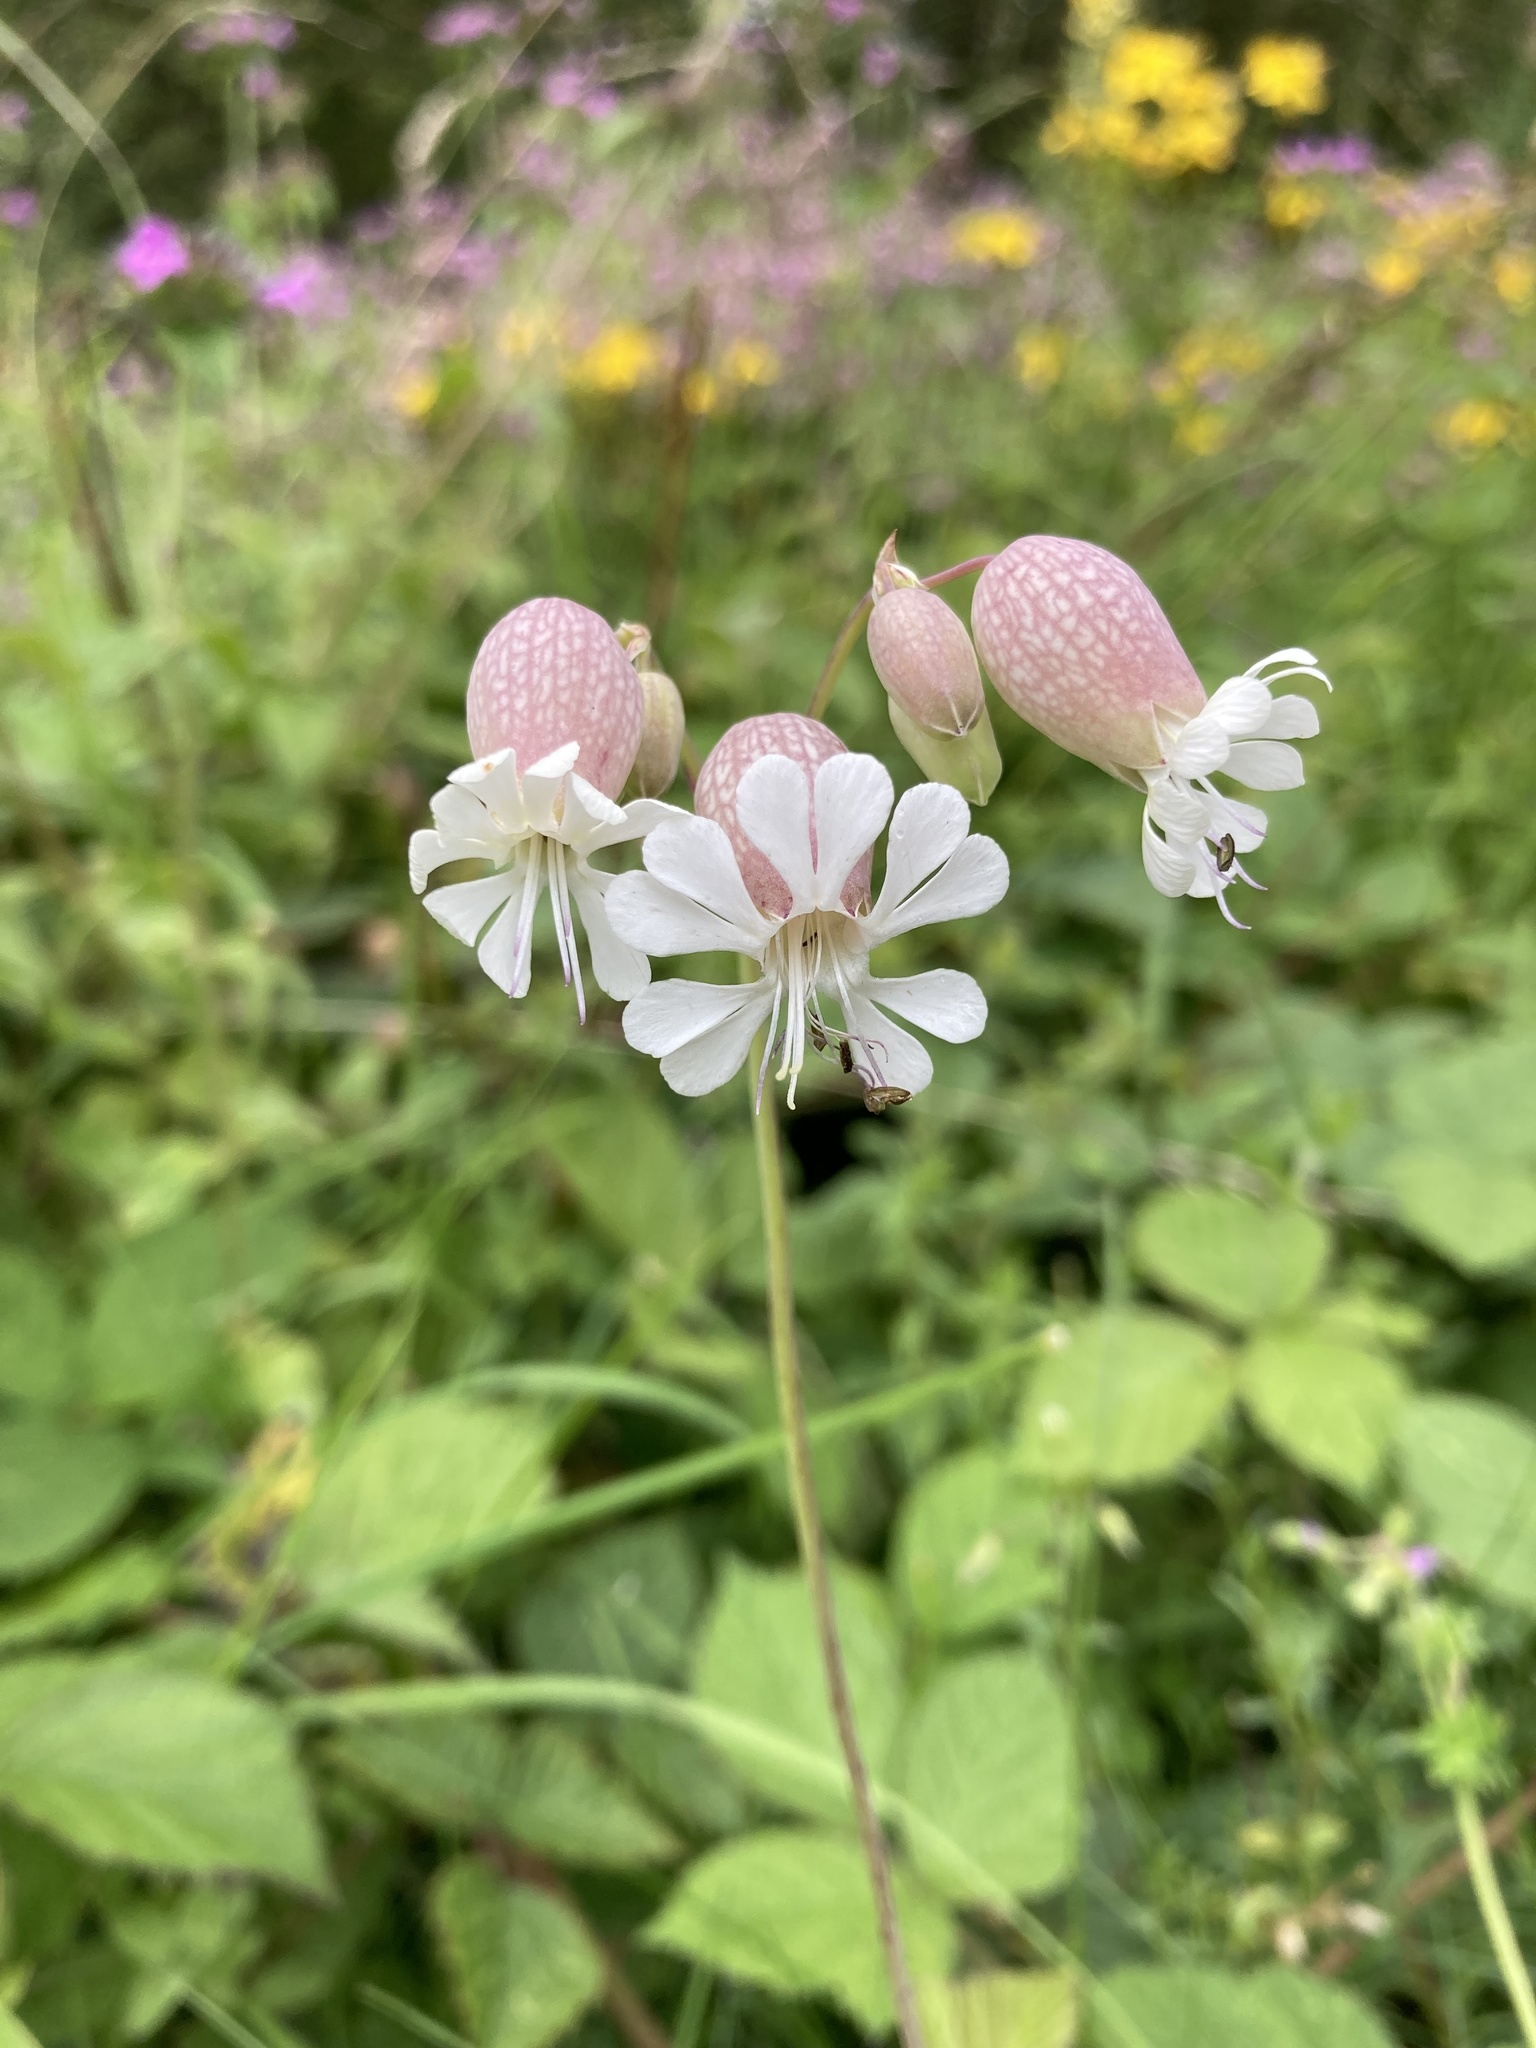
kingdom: Plantae
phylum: Tracheophyta
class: Magnoliopsida
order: Caryophyllales
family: Caryophyllaceae
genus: Silene
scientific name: Silene vulgaris
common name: Bladder campion
